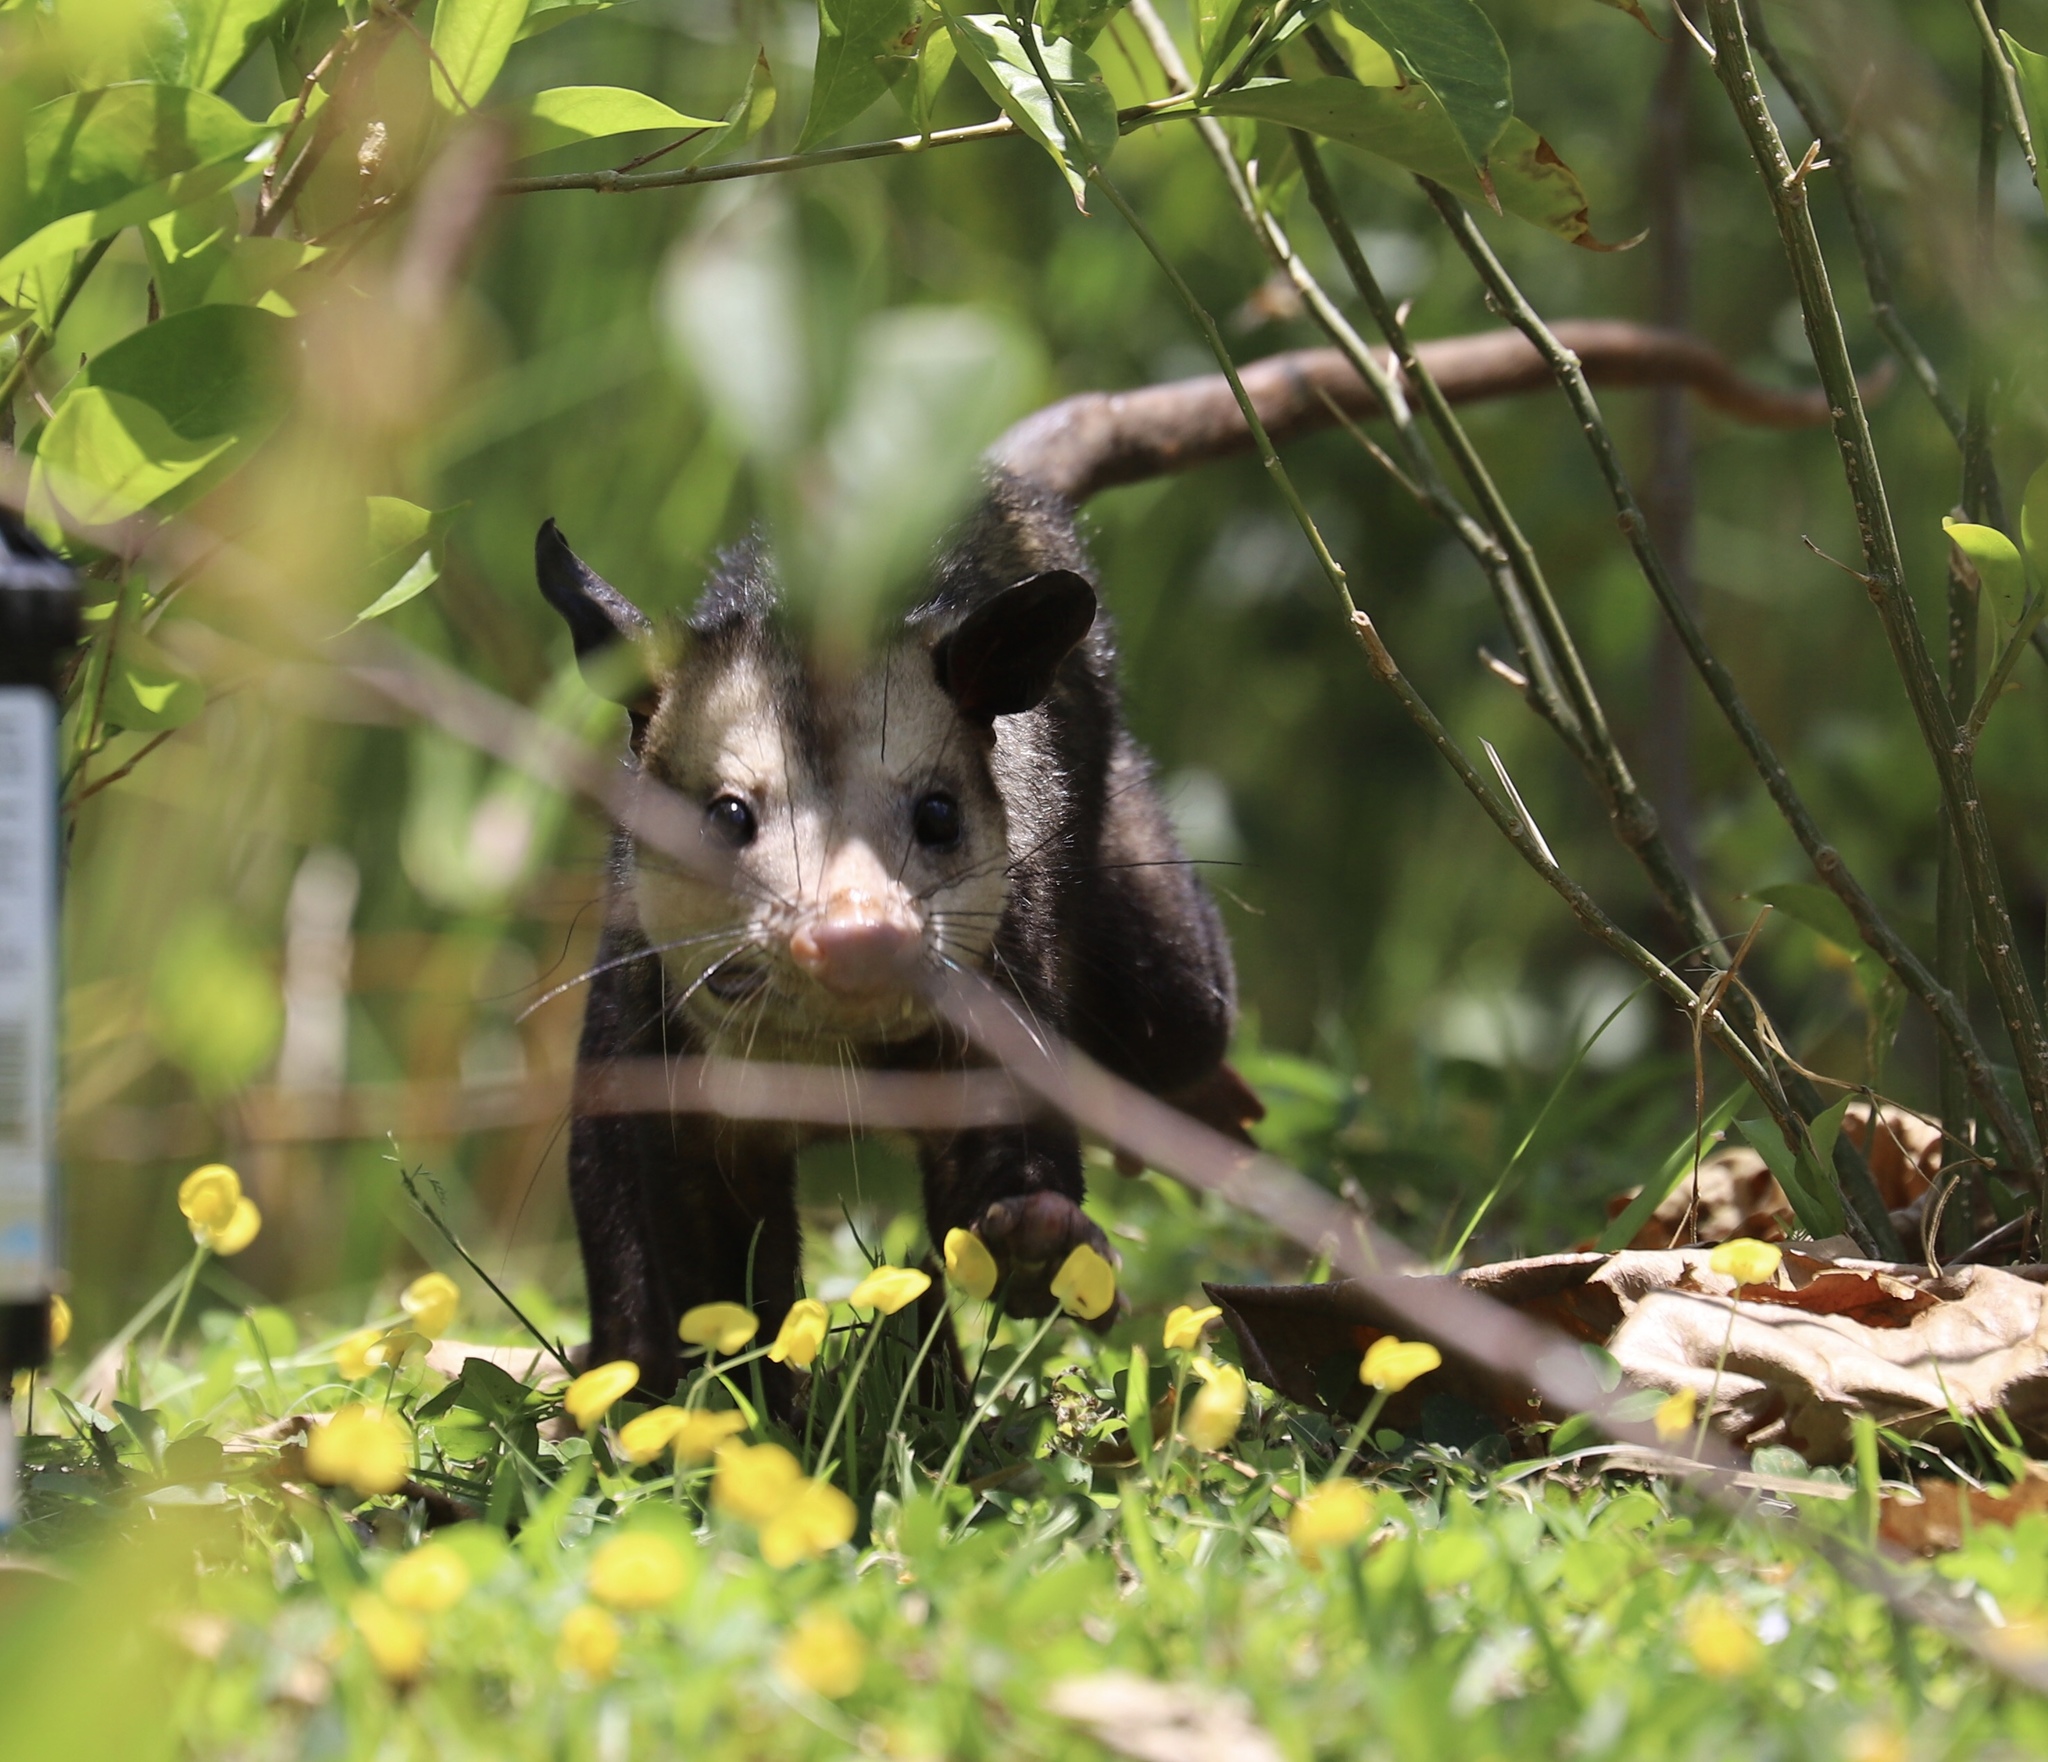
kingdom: Animalia
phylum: Chordata
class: Mammalia
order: Didelphimorphia
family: Didelphidae
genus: Didelphis
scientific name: Didelphis marsupialis
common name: Common opossum
